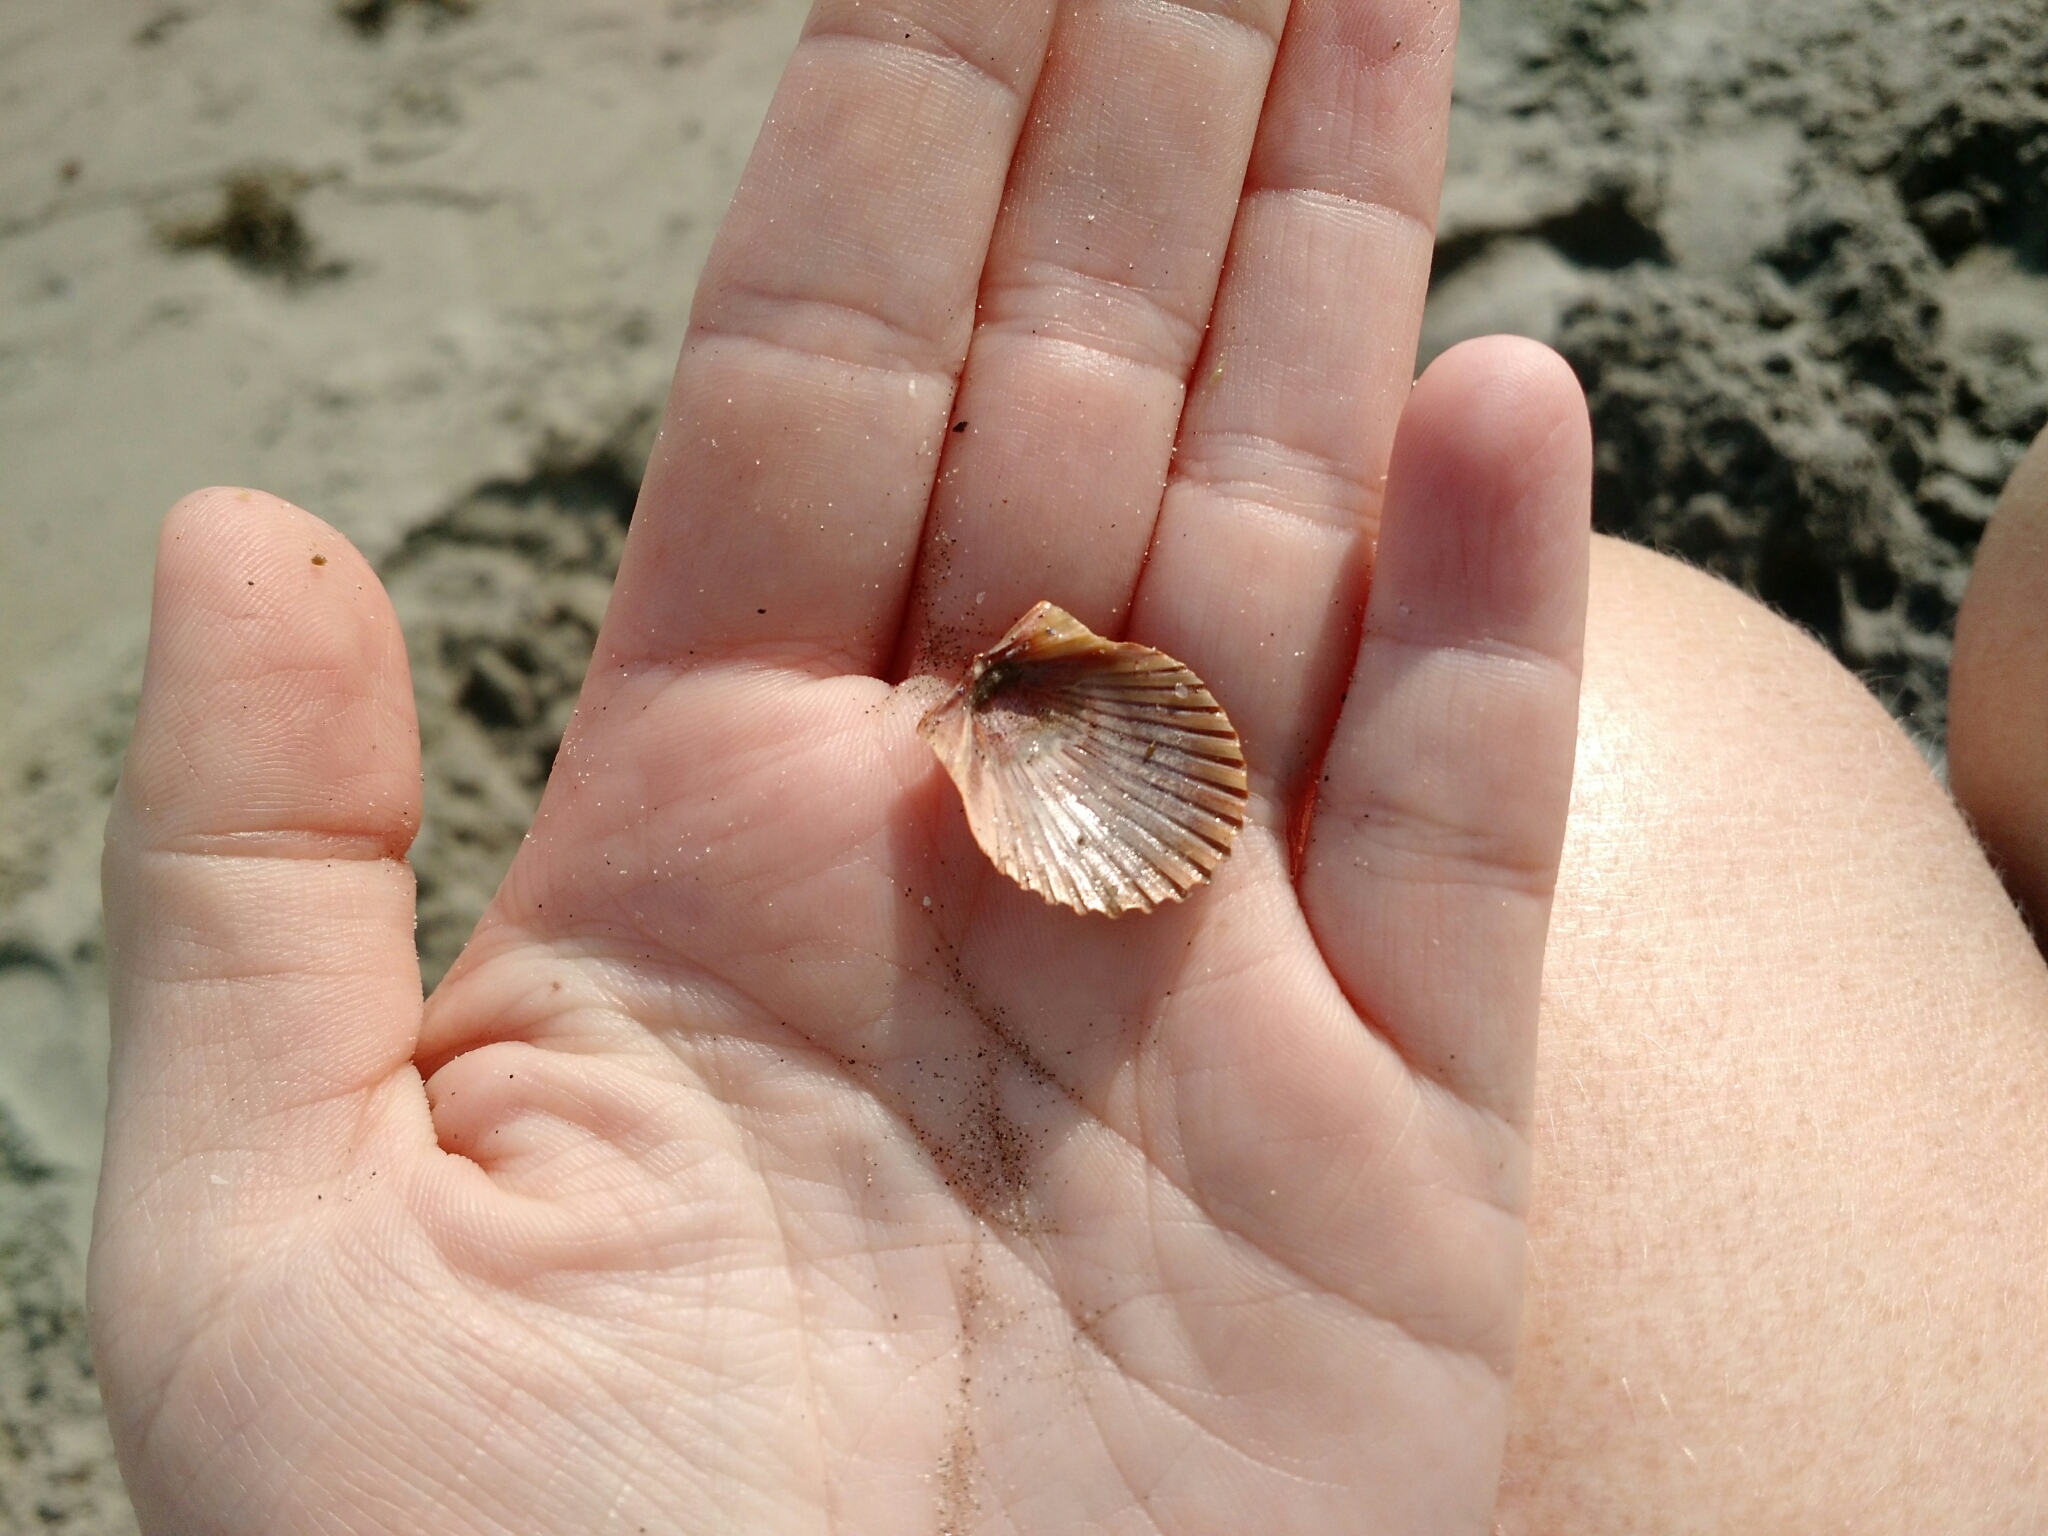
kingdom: Animalia
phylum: Mollusca
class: Bivalvia
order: Pectinida
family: Pectinidae
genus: Argopecten
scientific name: Argopecten irradians
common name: Atlantic bay scallop
